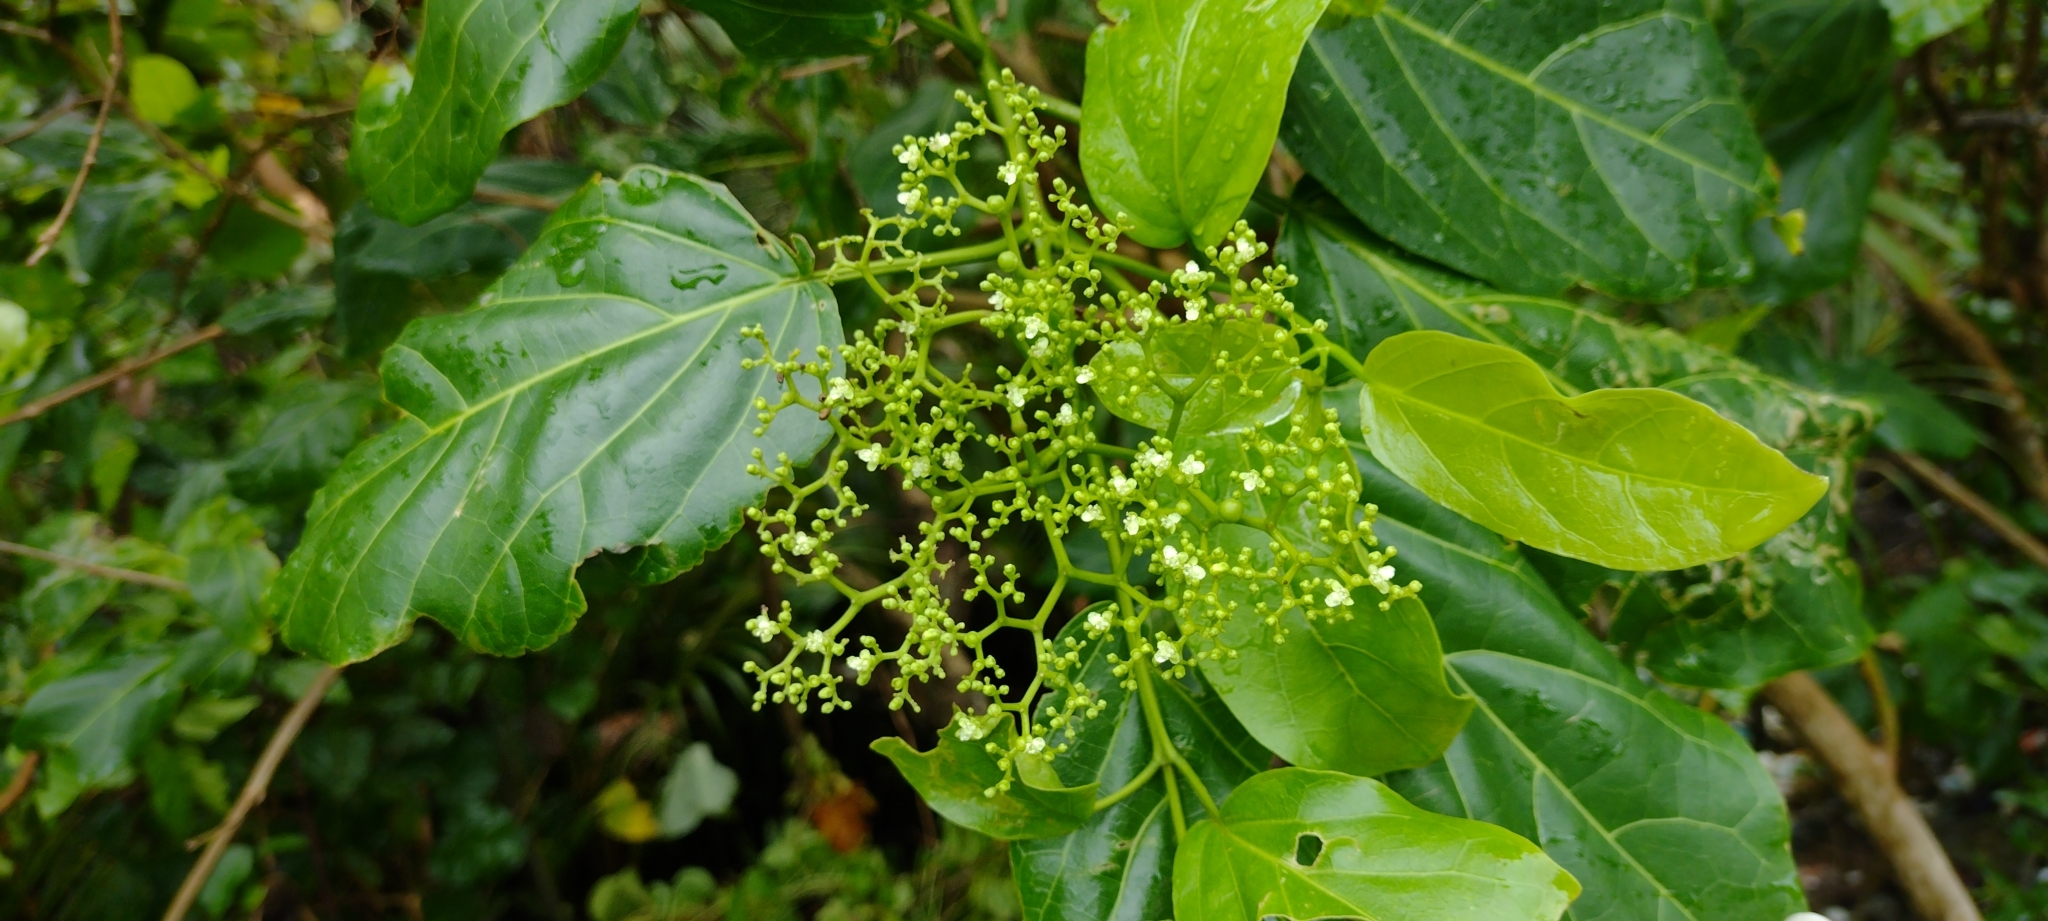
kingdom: Plantae
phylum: Tracheophyta
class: Magnoliopsida
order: Lamiales
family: Lamiaceae
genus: Premna
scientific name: Premna serratifolia
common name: Bastard guelder
